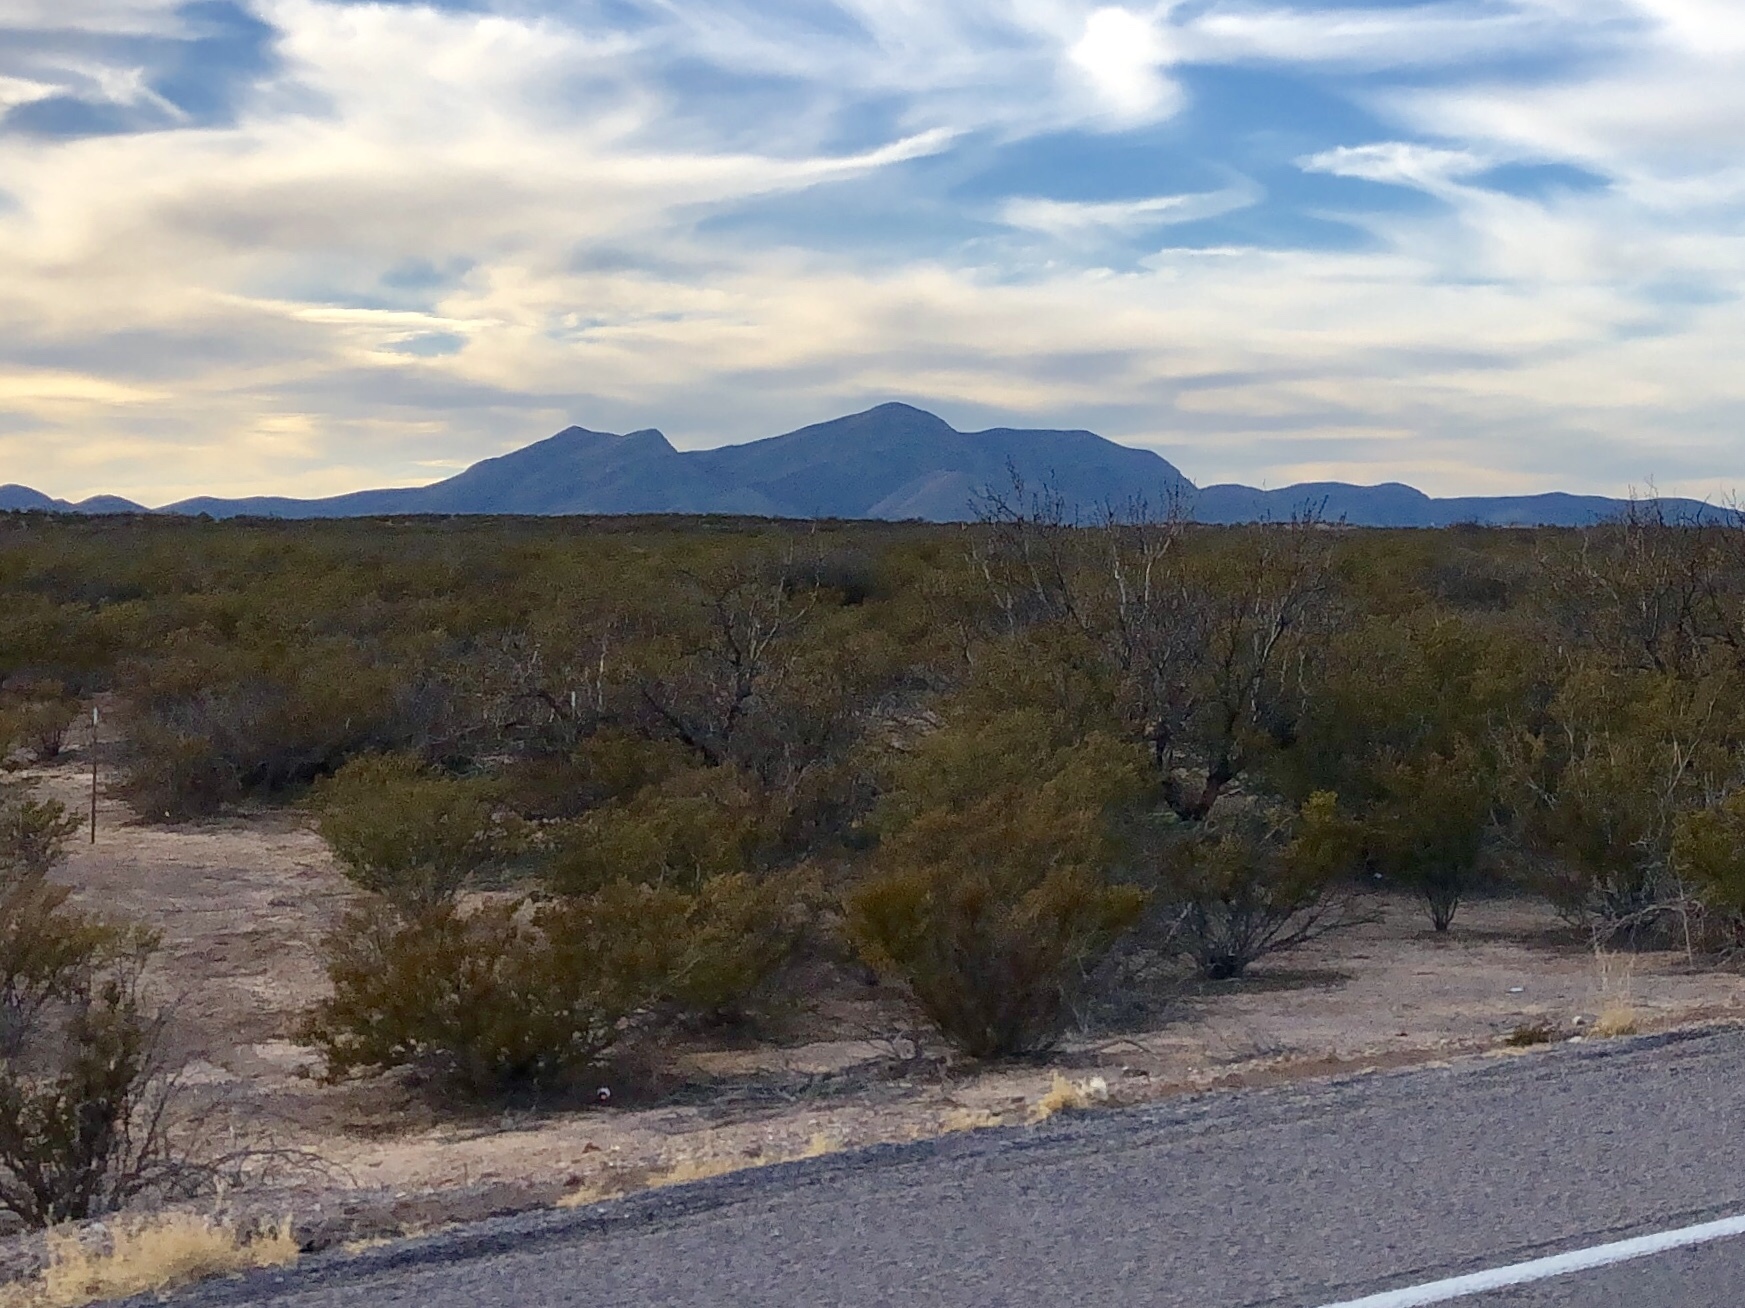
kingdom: Plantae
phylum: Tracheophyta
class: Magnoliopsida
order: Zygophyllales
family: Zygophyllaceae
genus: Larrea
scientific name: Larrea tridentata
